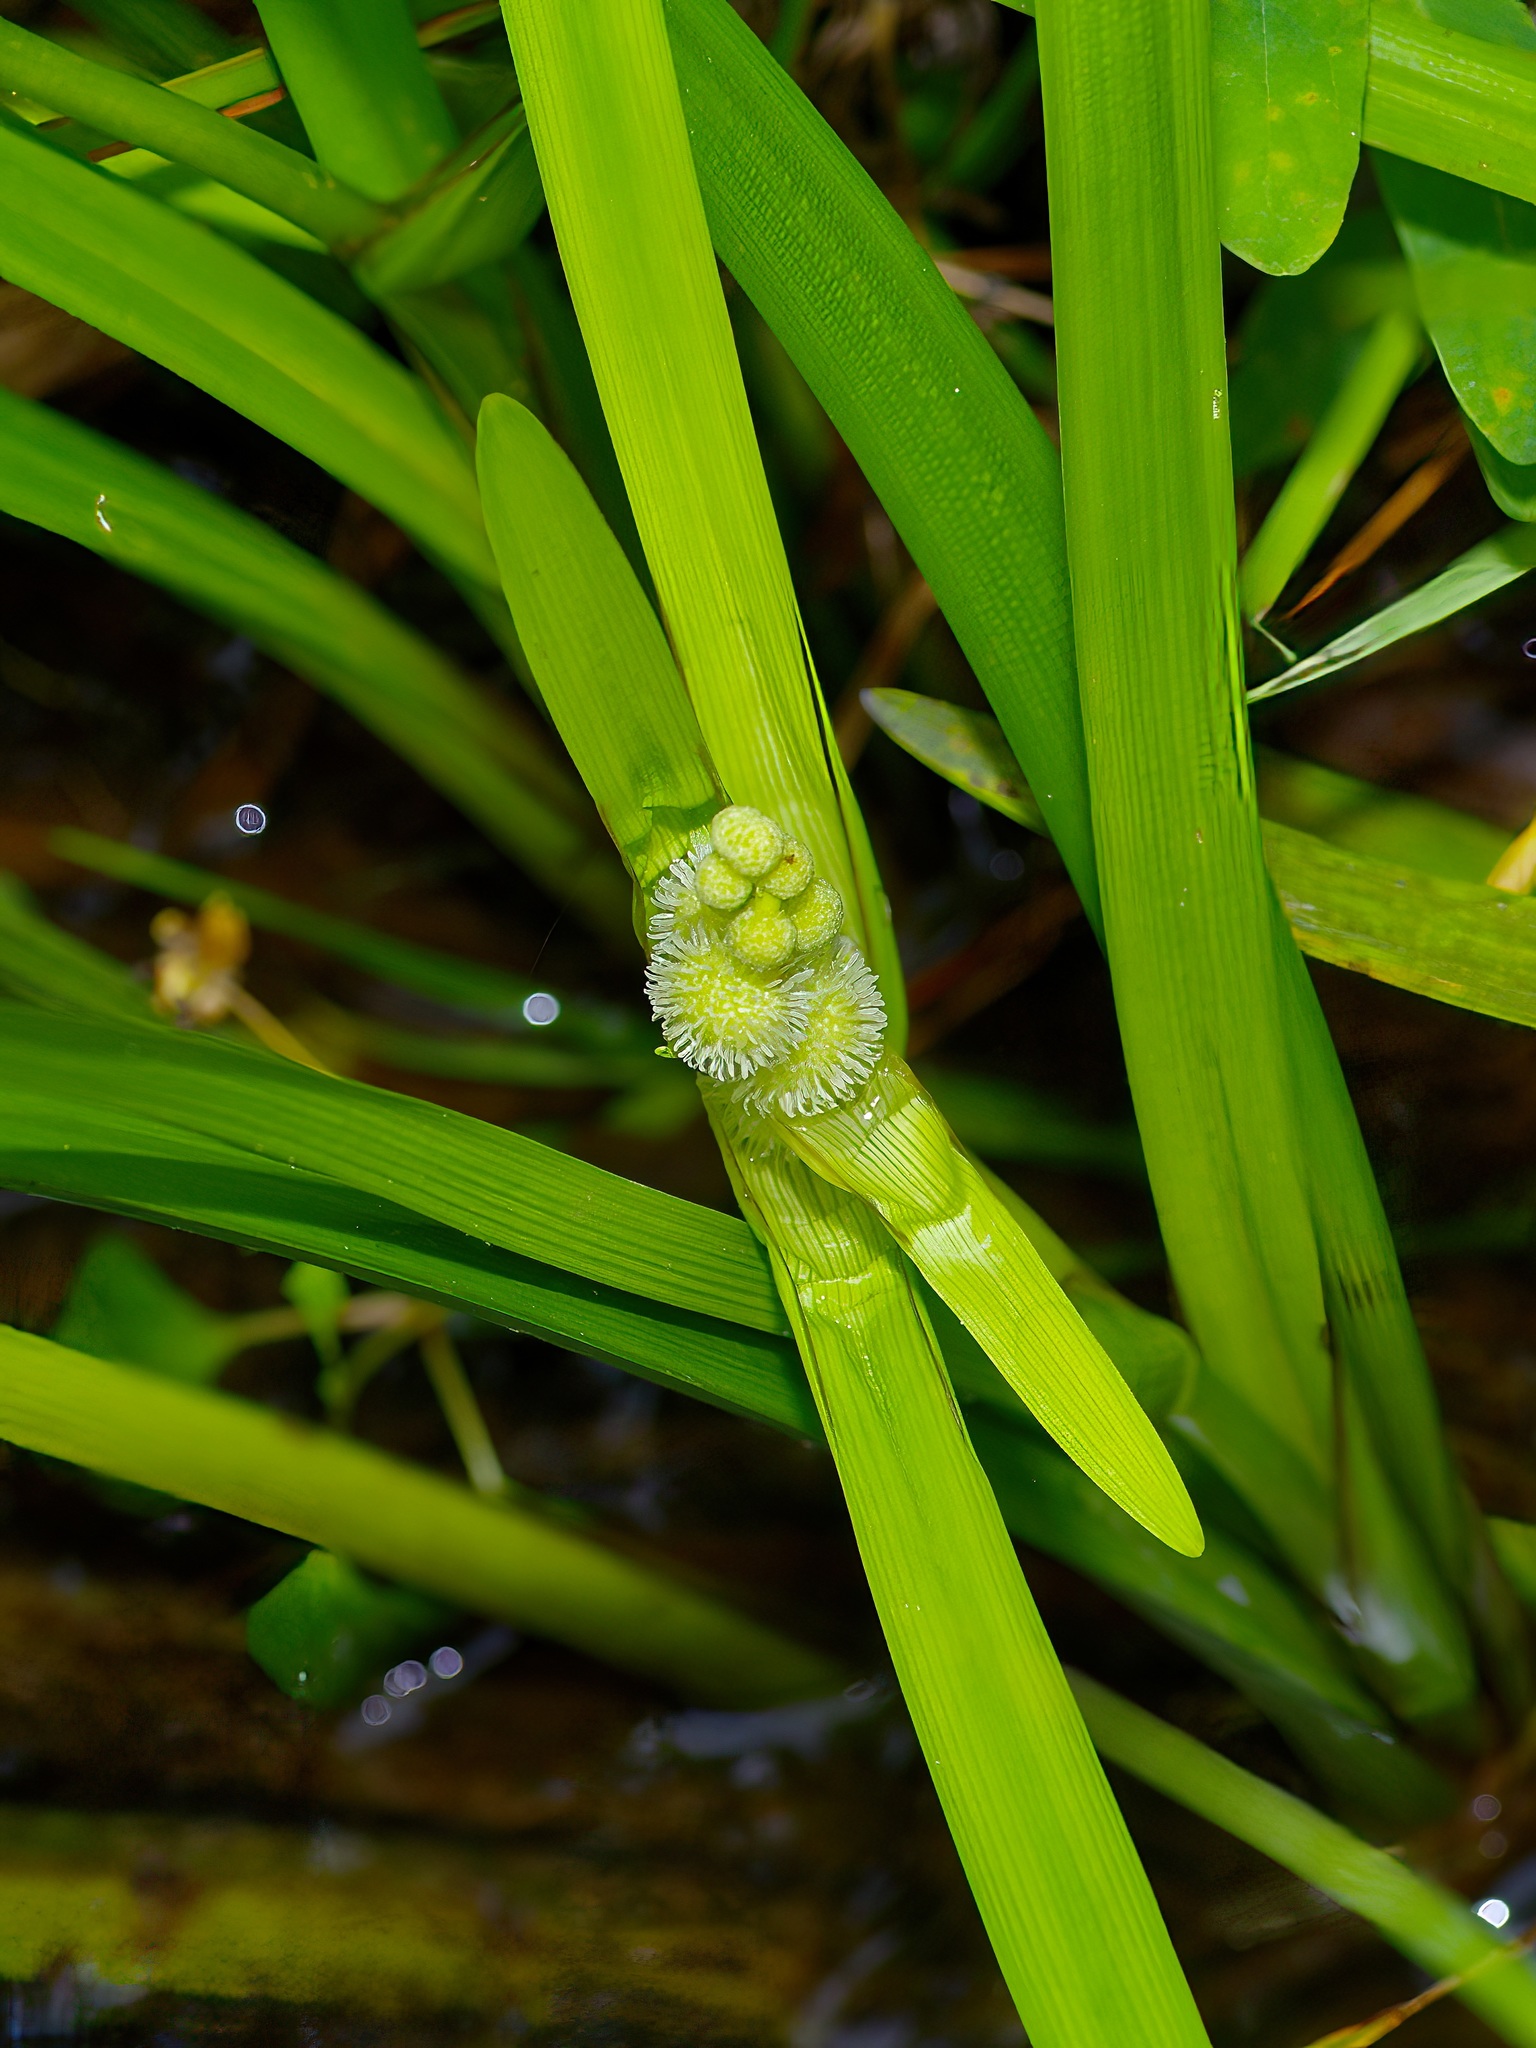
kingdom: Plantae
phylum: Tracheophyta
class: Liliopsida
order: Poales
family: Typhaceae
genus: Sparganium
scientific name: Sparganium americanum
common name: American burreed
